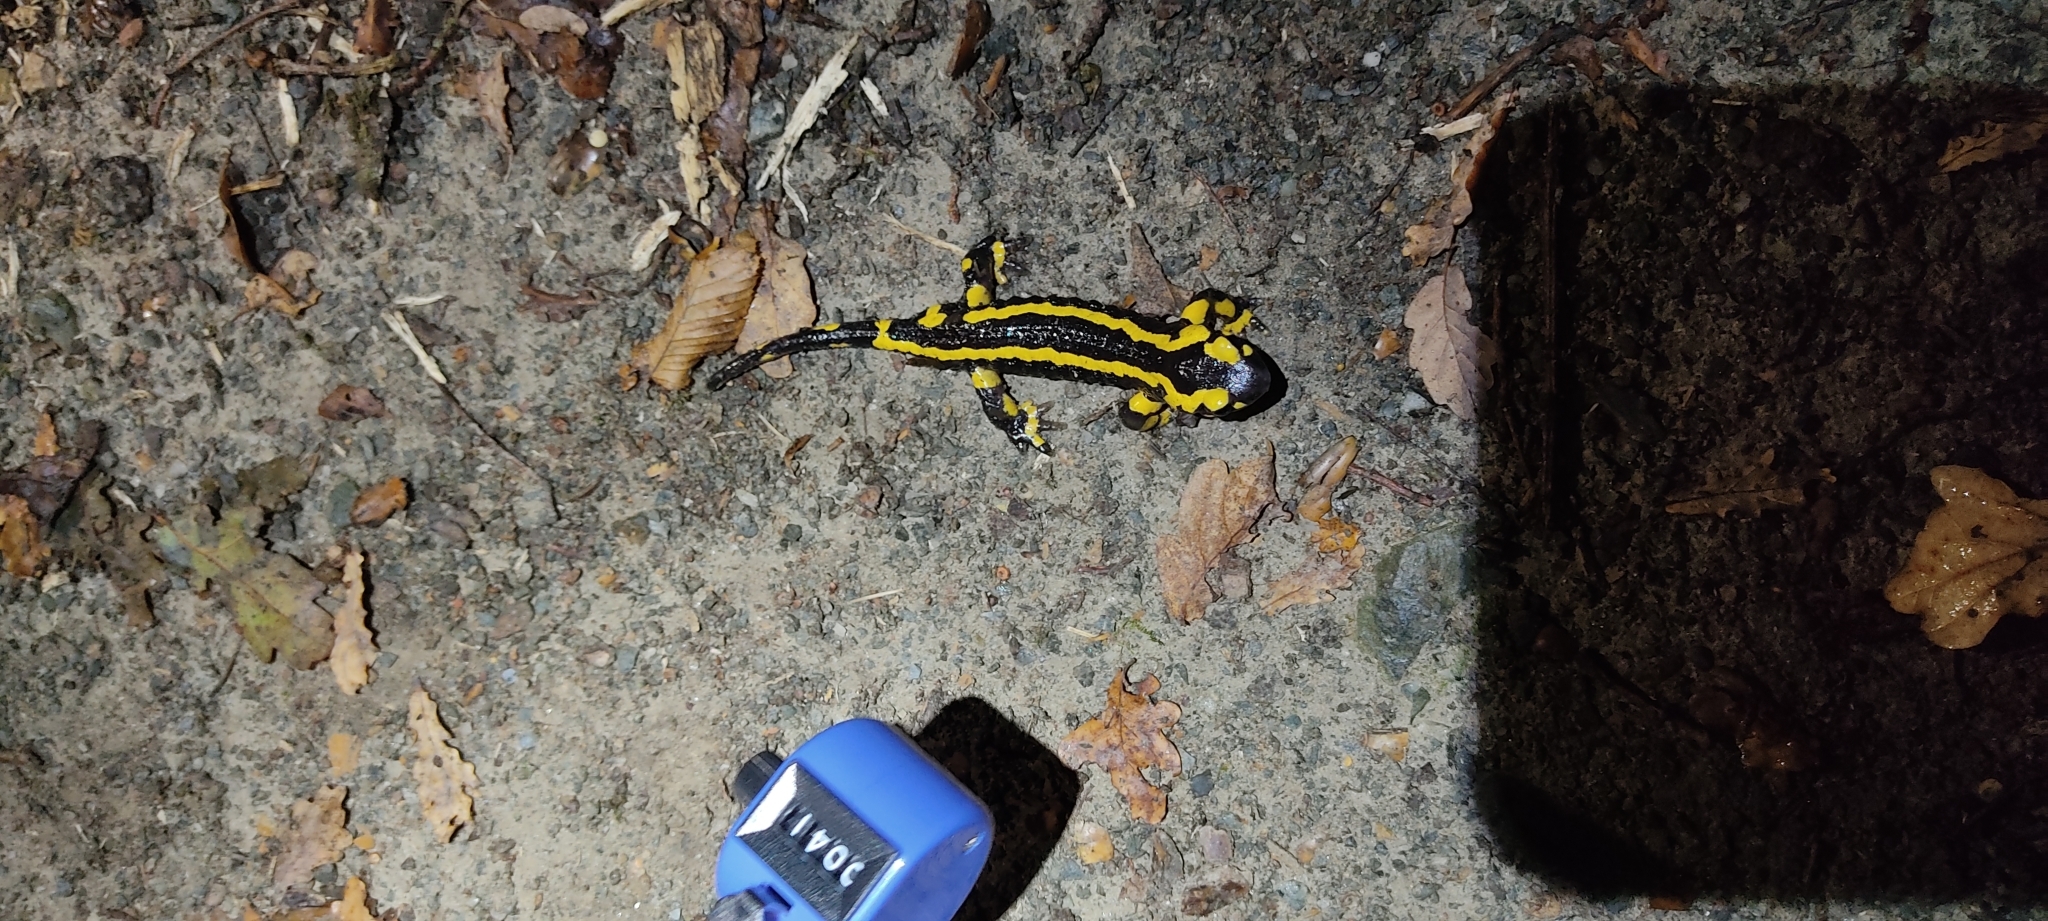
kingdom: Animalia
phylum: Chordata
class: Amphibia
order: Caudata
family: Salamandridae
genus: Salamandra
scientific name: Salamandra salamandra
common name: Fire salamander
